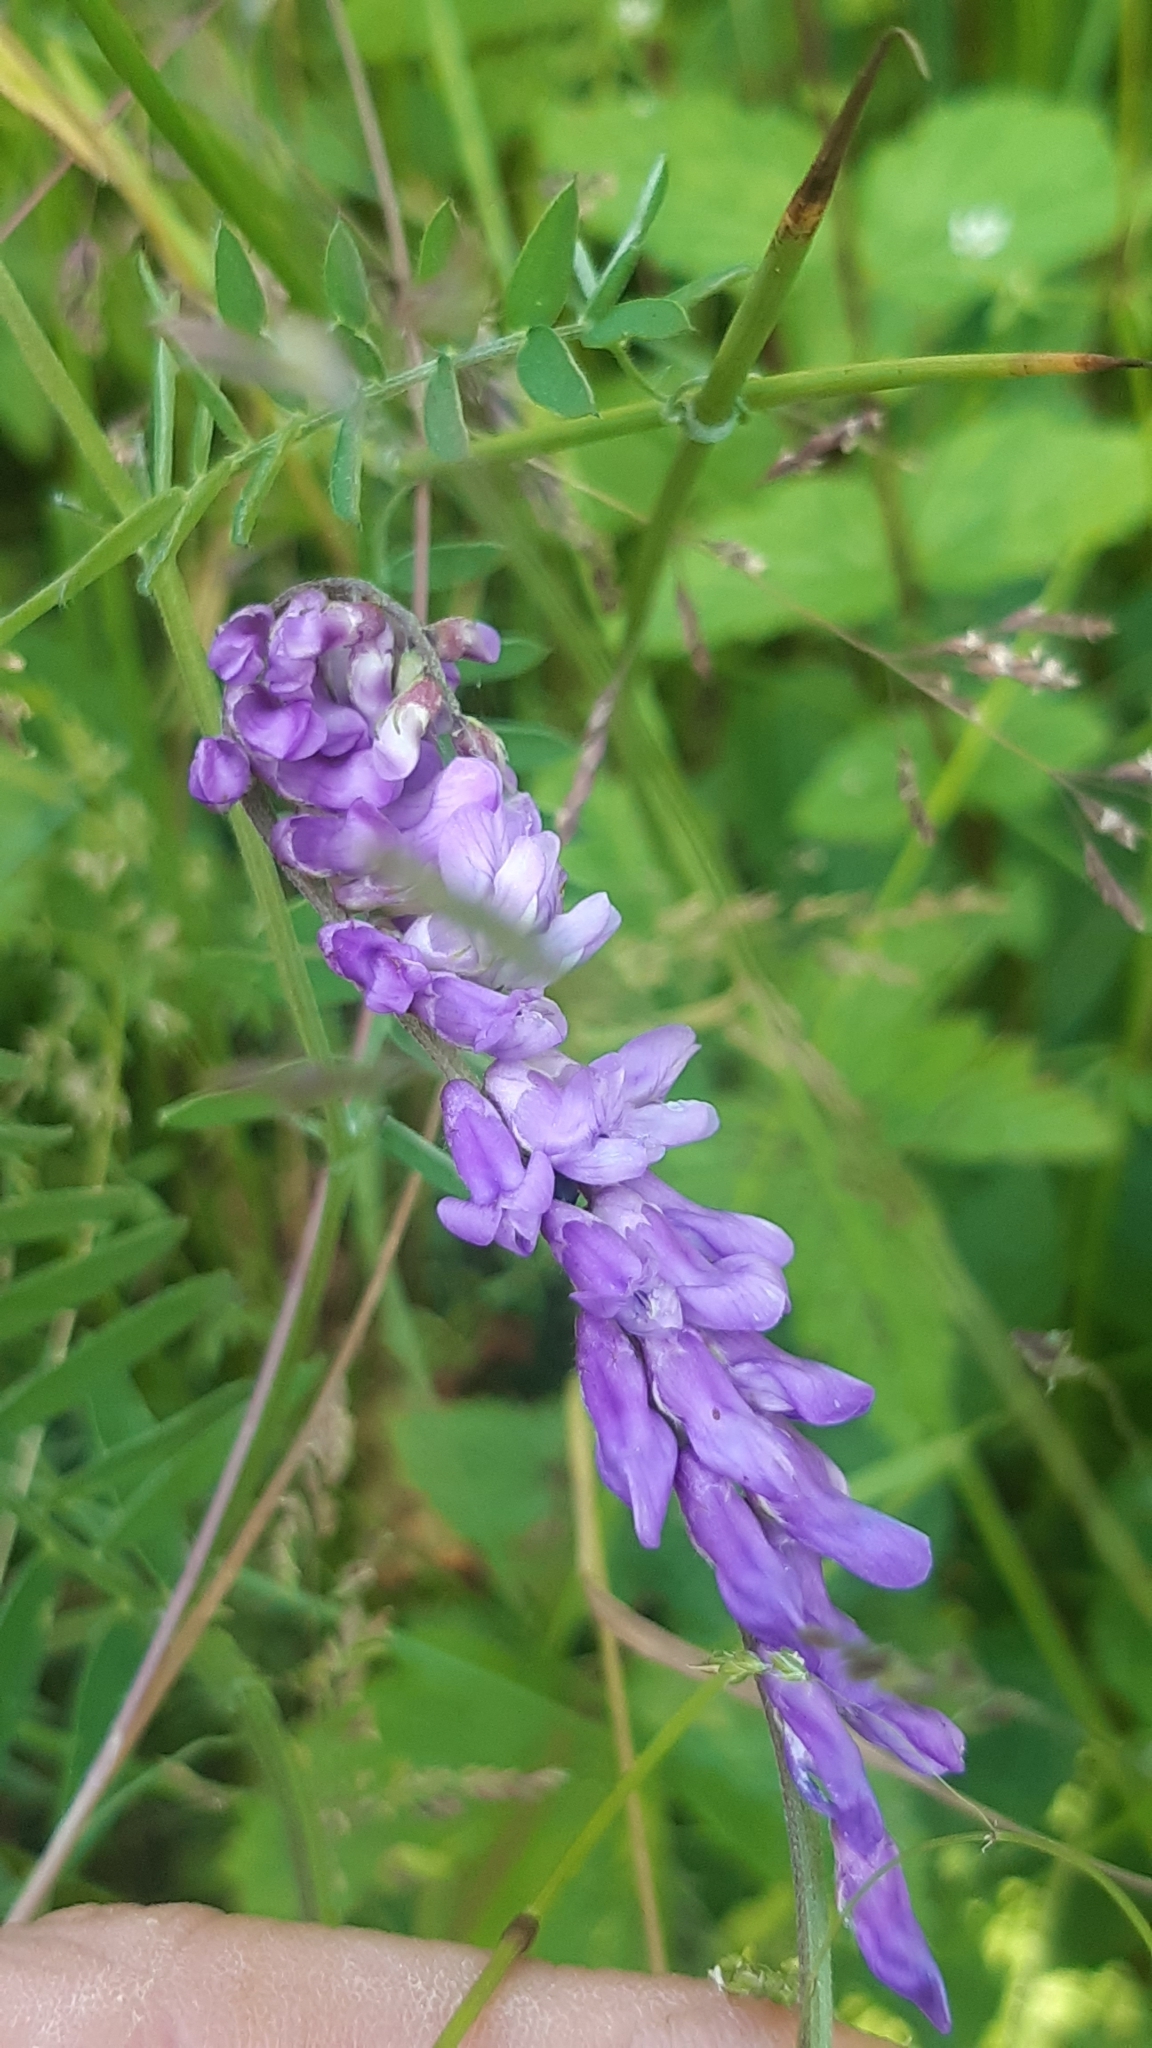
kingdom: Plantae
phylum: Tracheophyta
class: Magnoliopsida
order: Fabales
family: Fabaceae
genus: Vicia
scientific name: Vicia cracca
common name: Bird vetch
